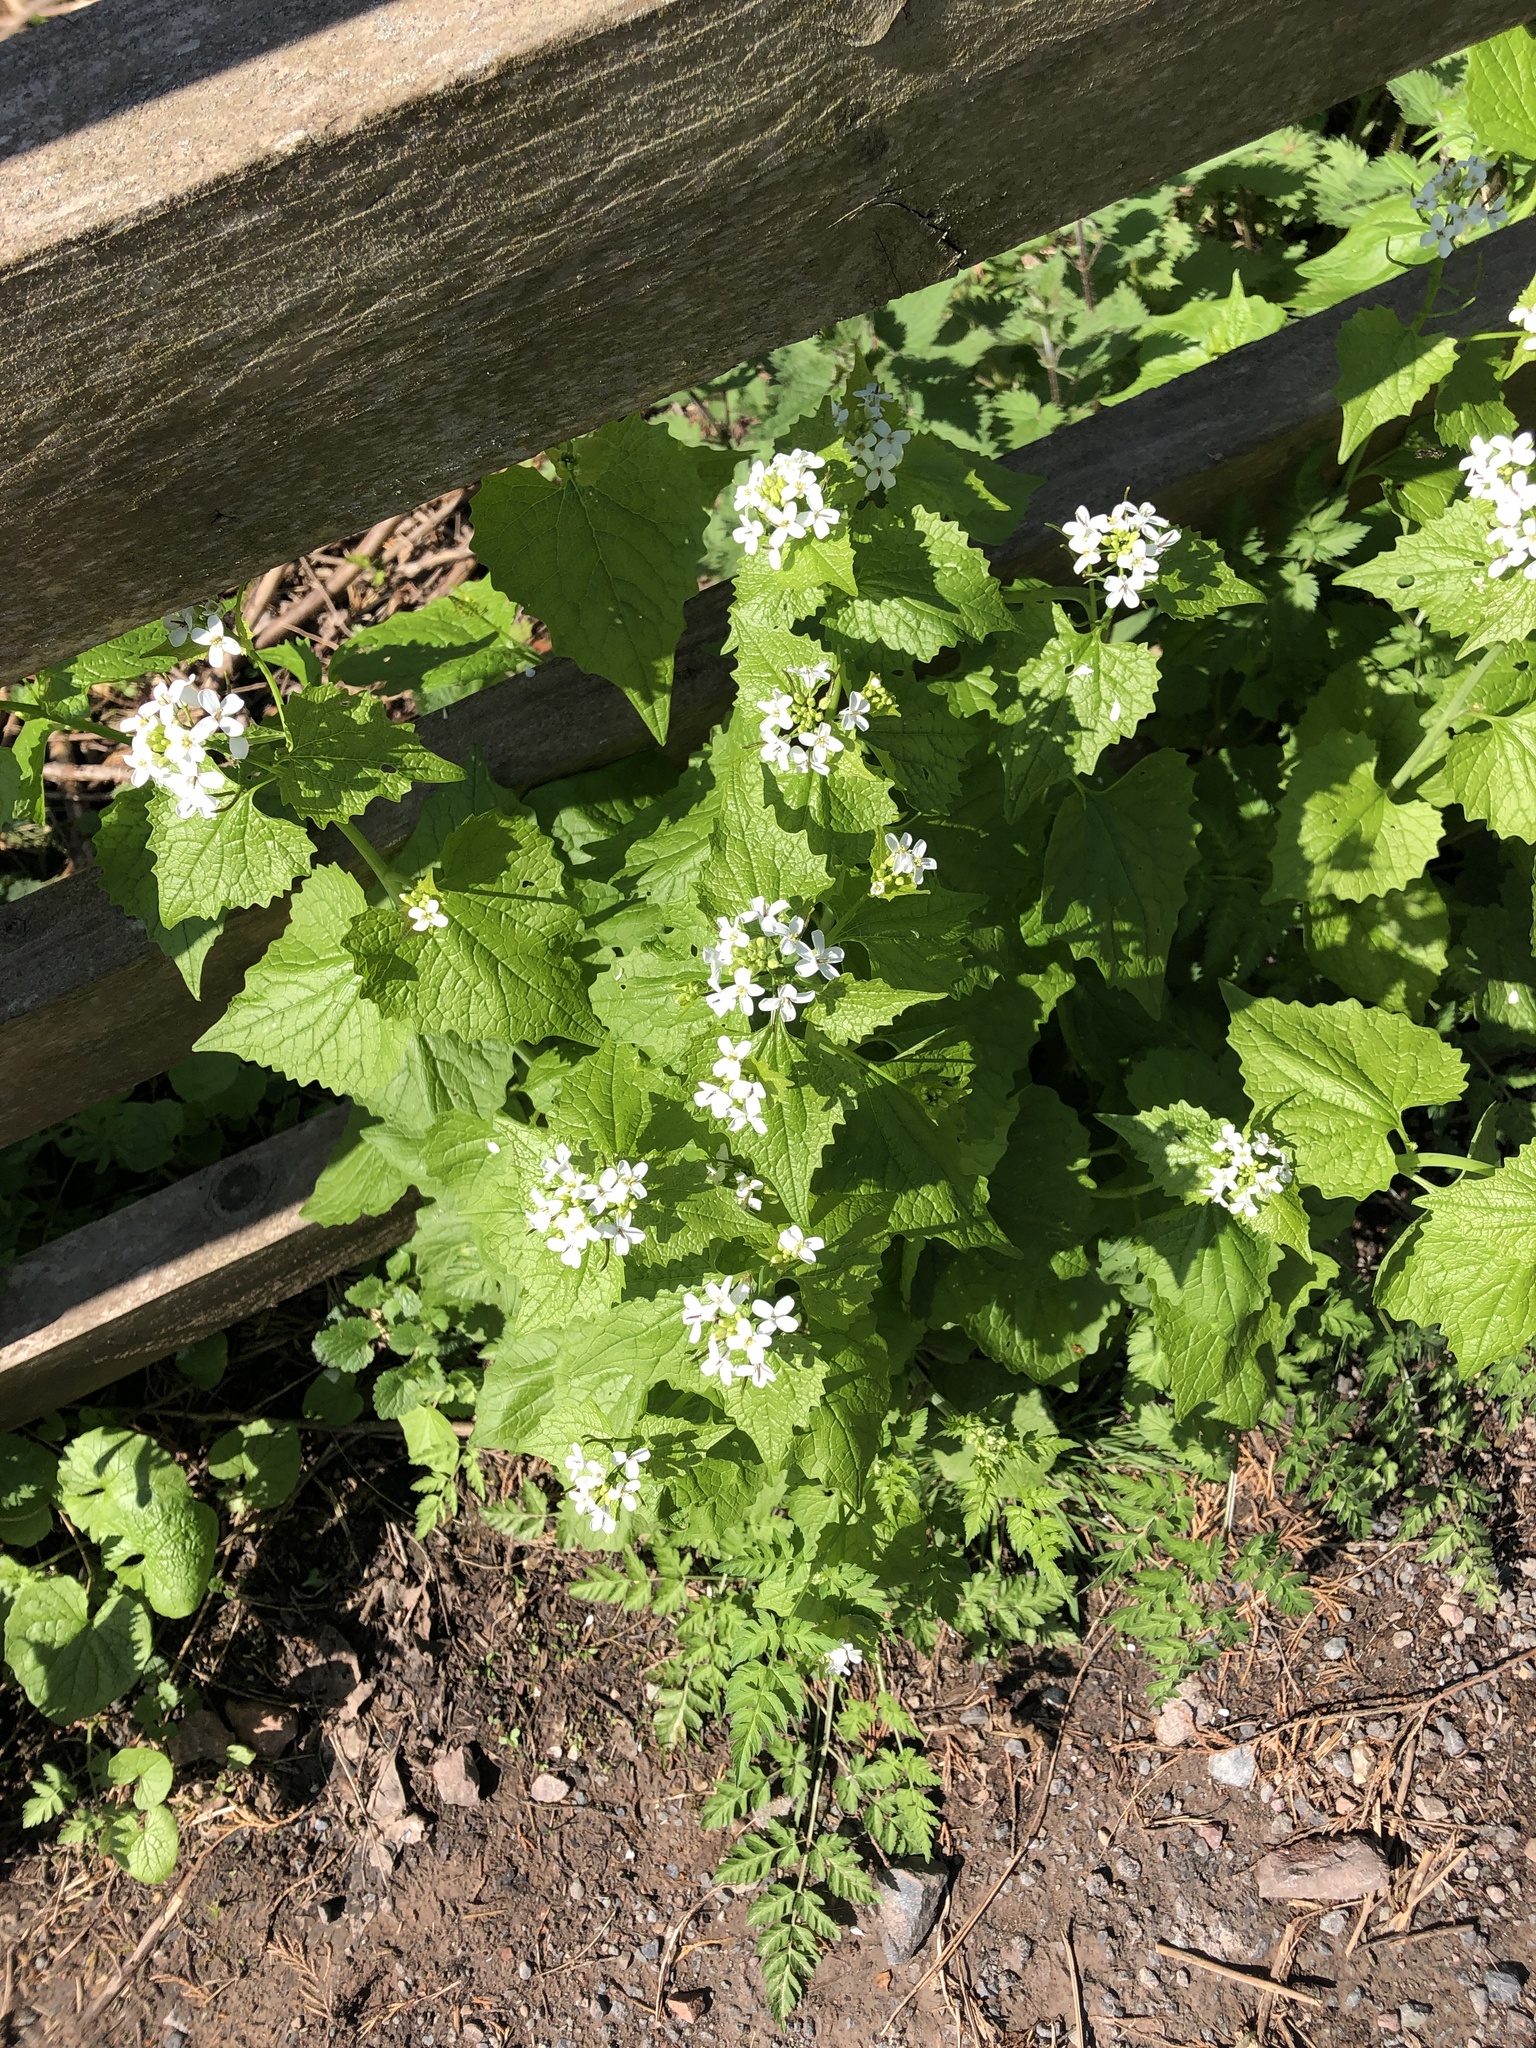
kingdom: Plantae
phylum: Tracheophyta
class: Magnoliopsida
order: Brassicales
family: Brassicaceae
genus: Alliaria
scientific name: Alliaria petiolata
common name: Garlic mustard
